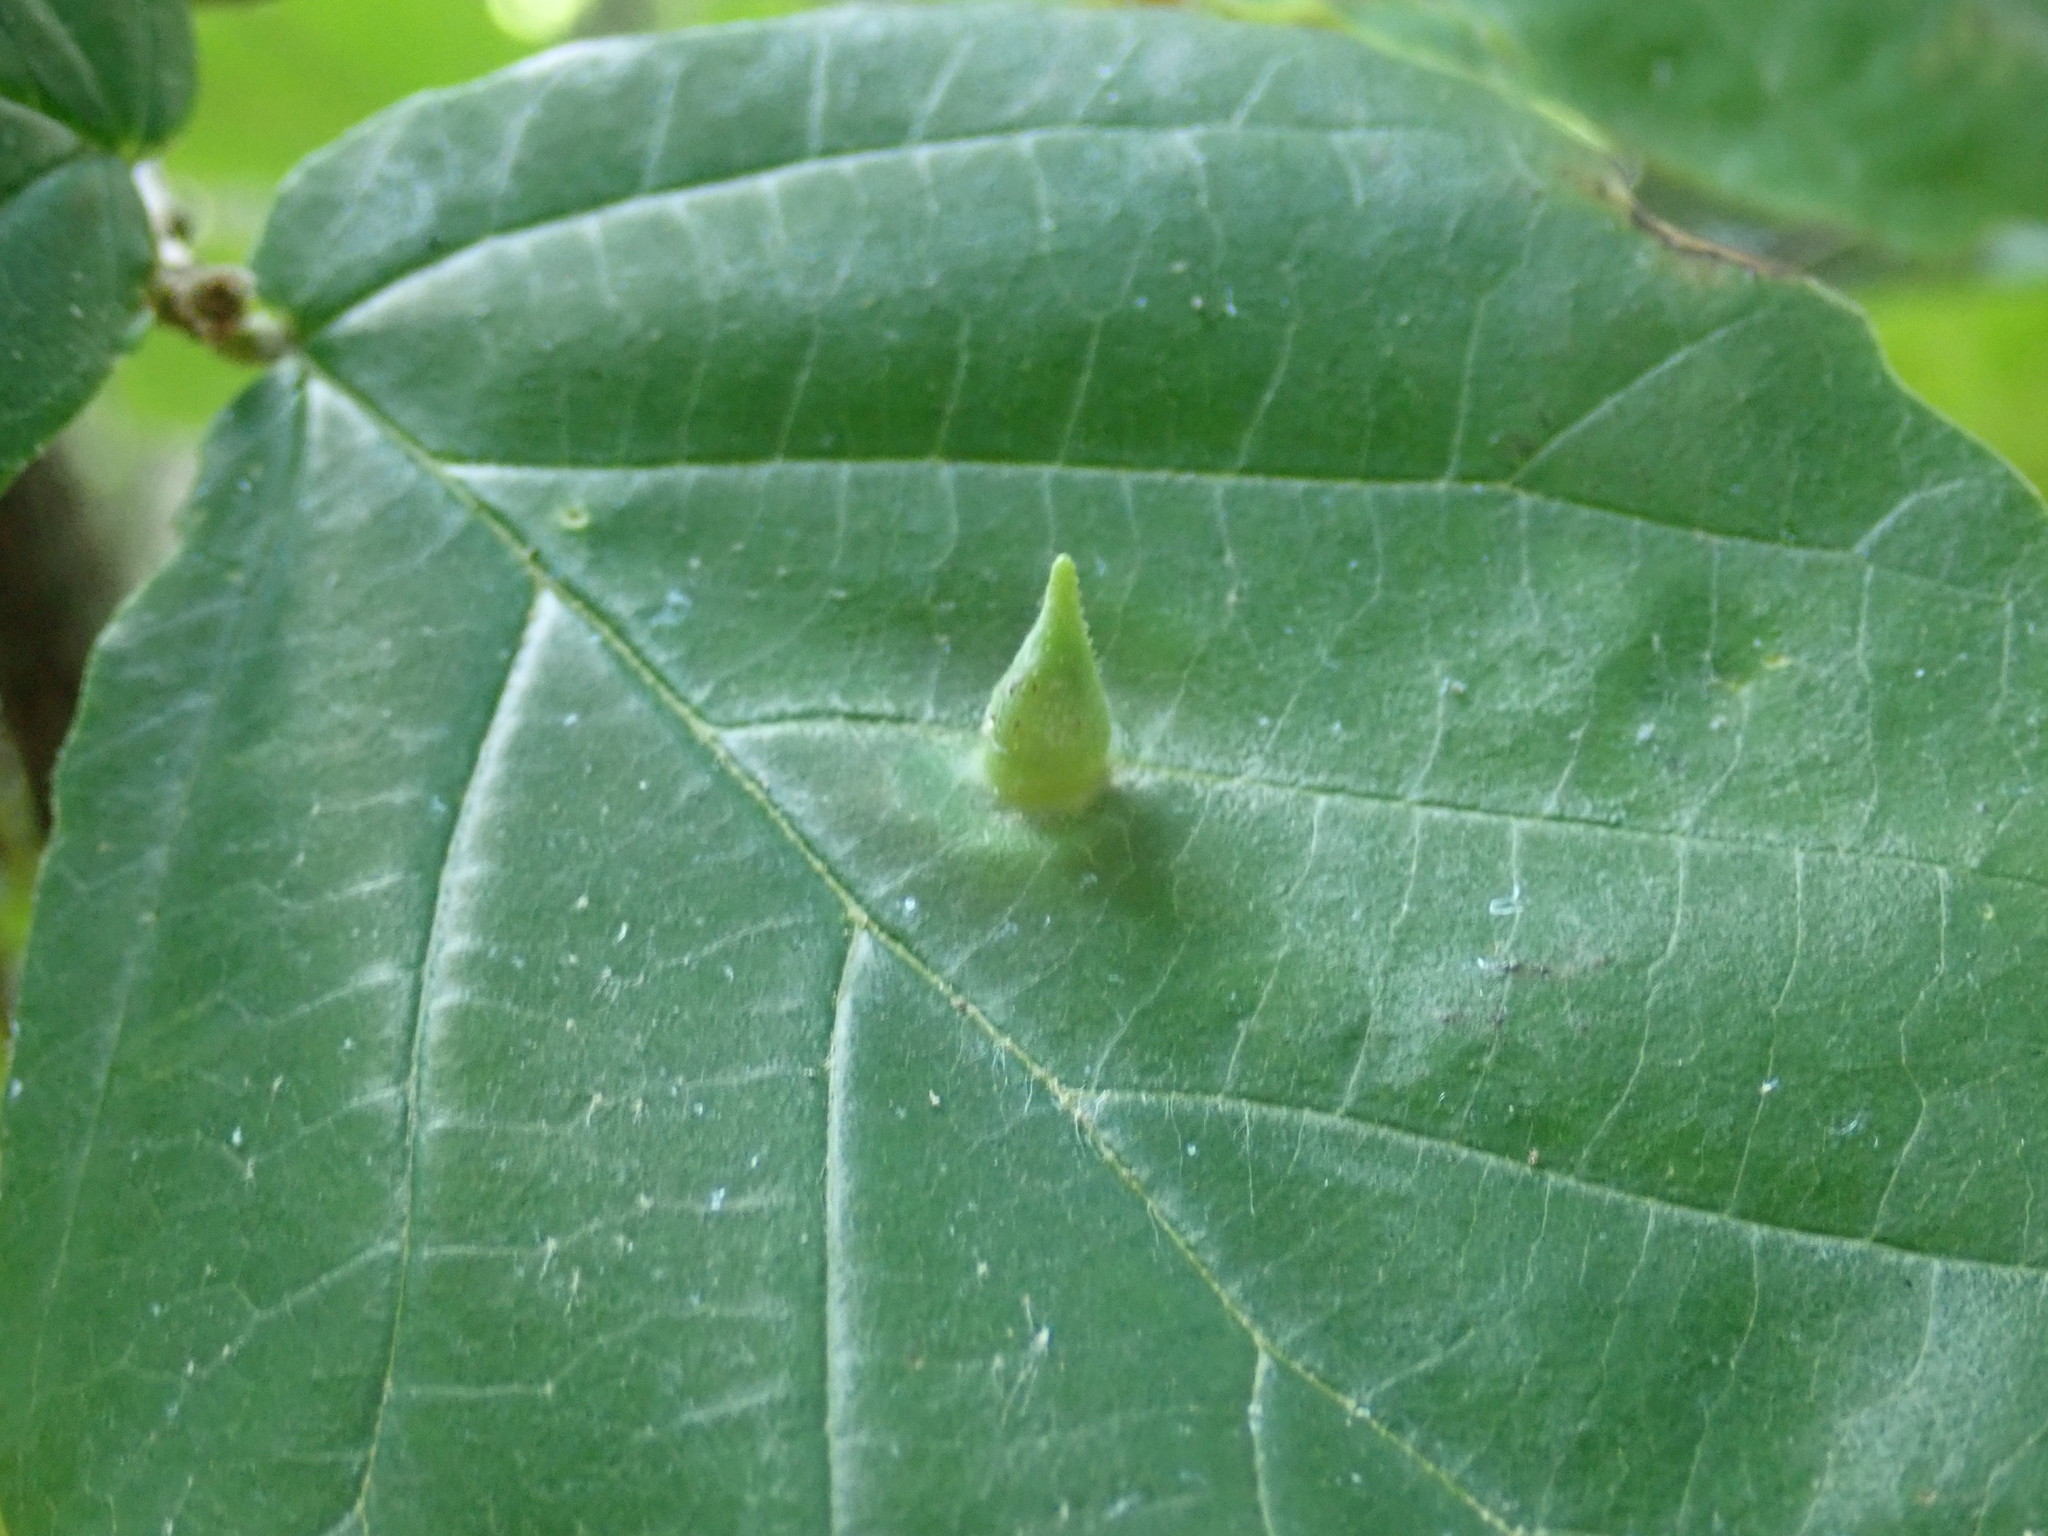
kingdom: Animalia
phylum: Arthropoda
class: Insecta
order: Hemiptera
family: Aphididae
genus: Hormaphis
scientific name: Hormaphis hamamelidis
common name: Witch-hazel cone gall aphid
